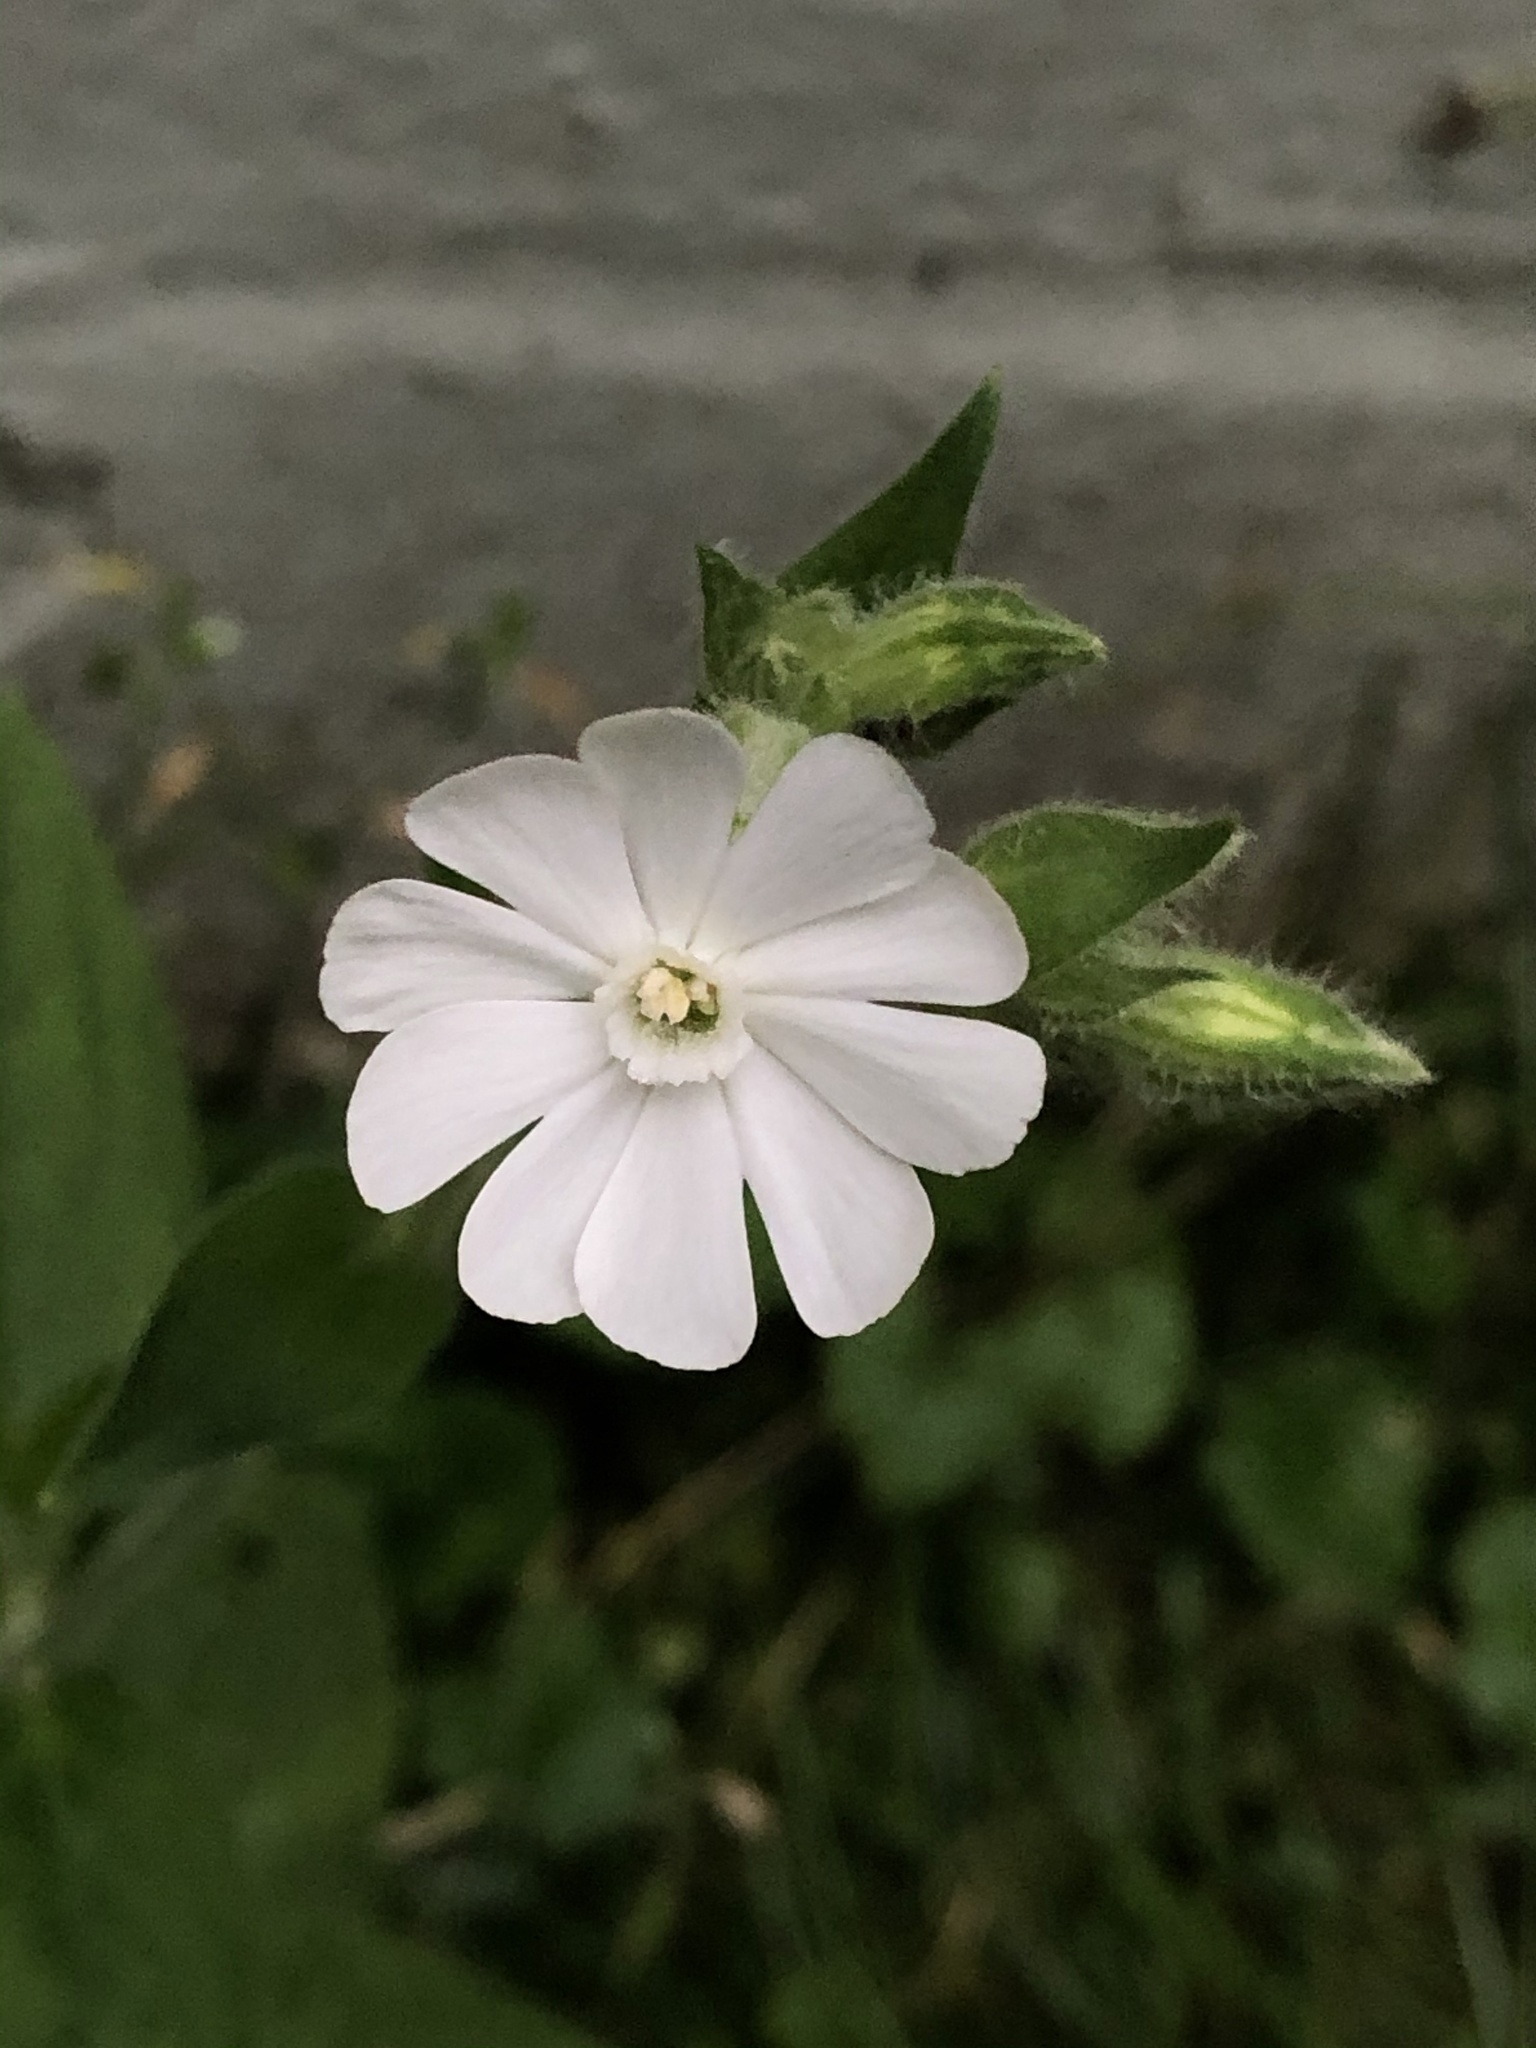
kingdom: Plantae
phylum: Tracheophyta
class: Magnoliopsida
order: Caryophyllales
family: Caryophyllaceae
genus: Silene
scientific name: Silene latifolia
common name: White campion
